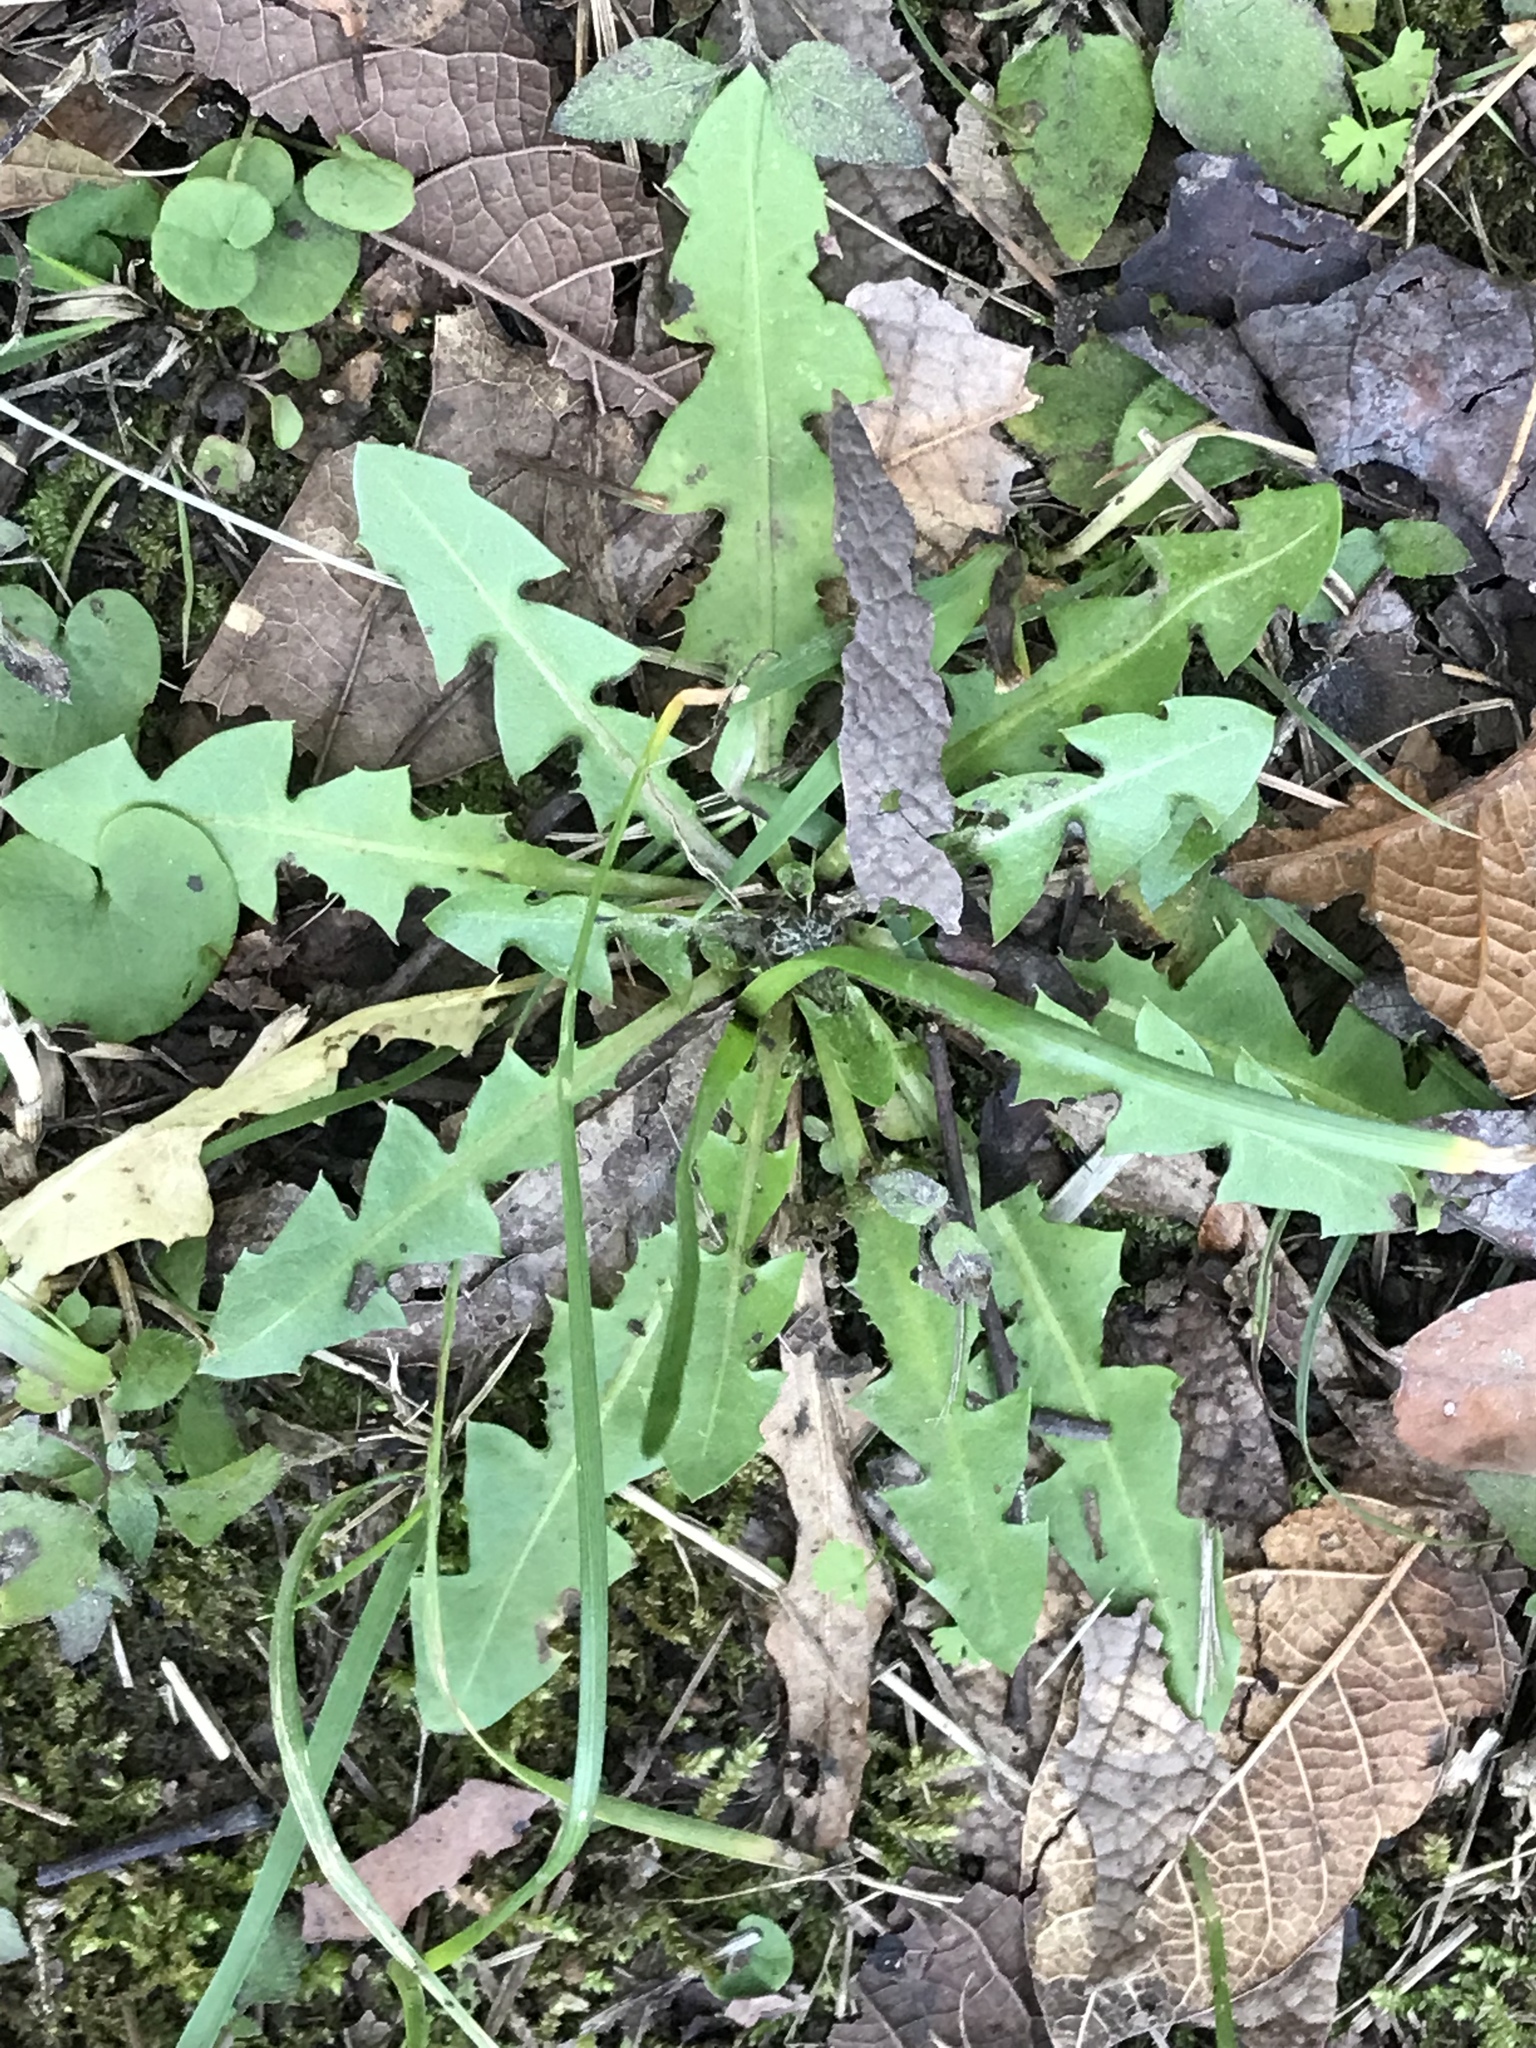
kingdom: Plantae
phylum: Tracheophyta
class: Magnoliopsida
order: Asterales
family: Asteraceae
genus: Taraxacum
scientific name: Taraxacum officinale
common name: Common dandelion
